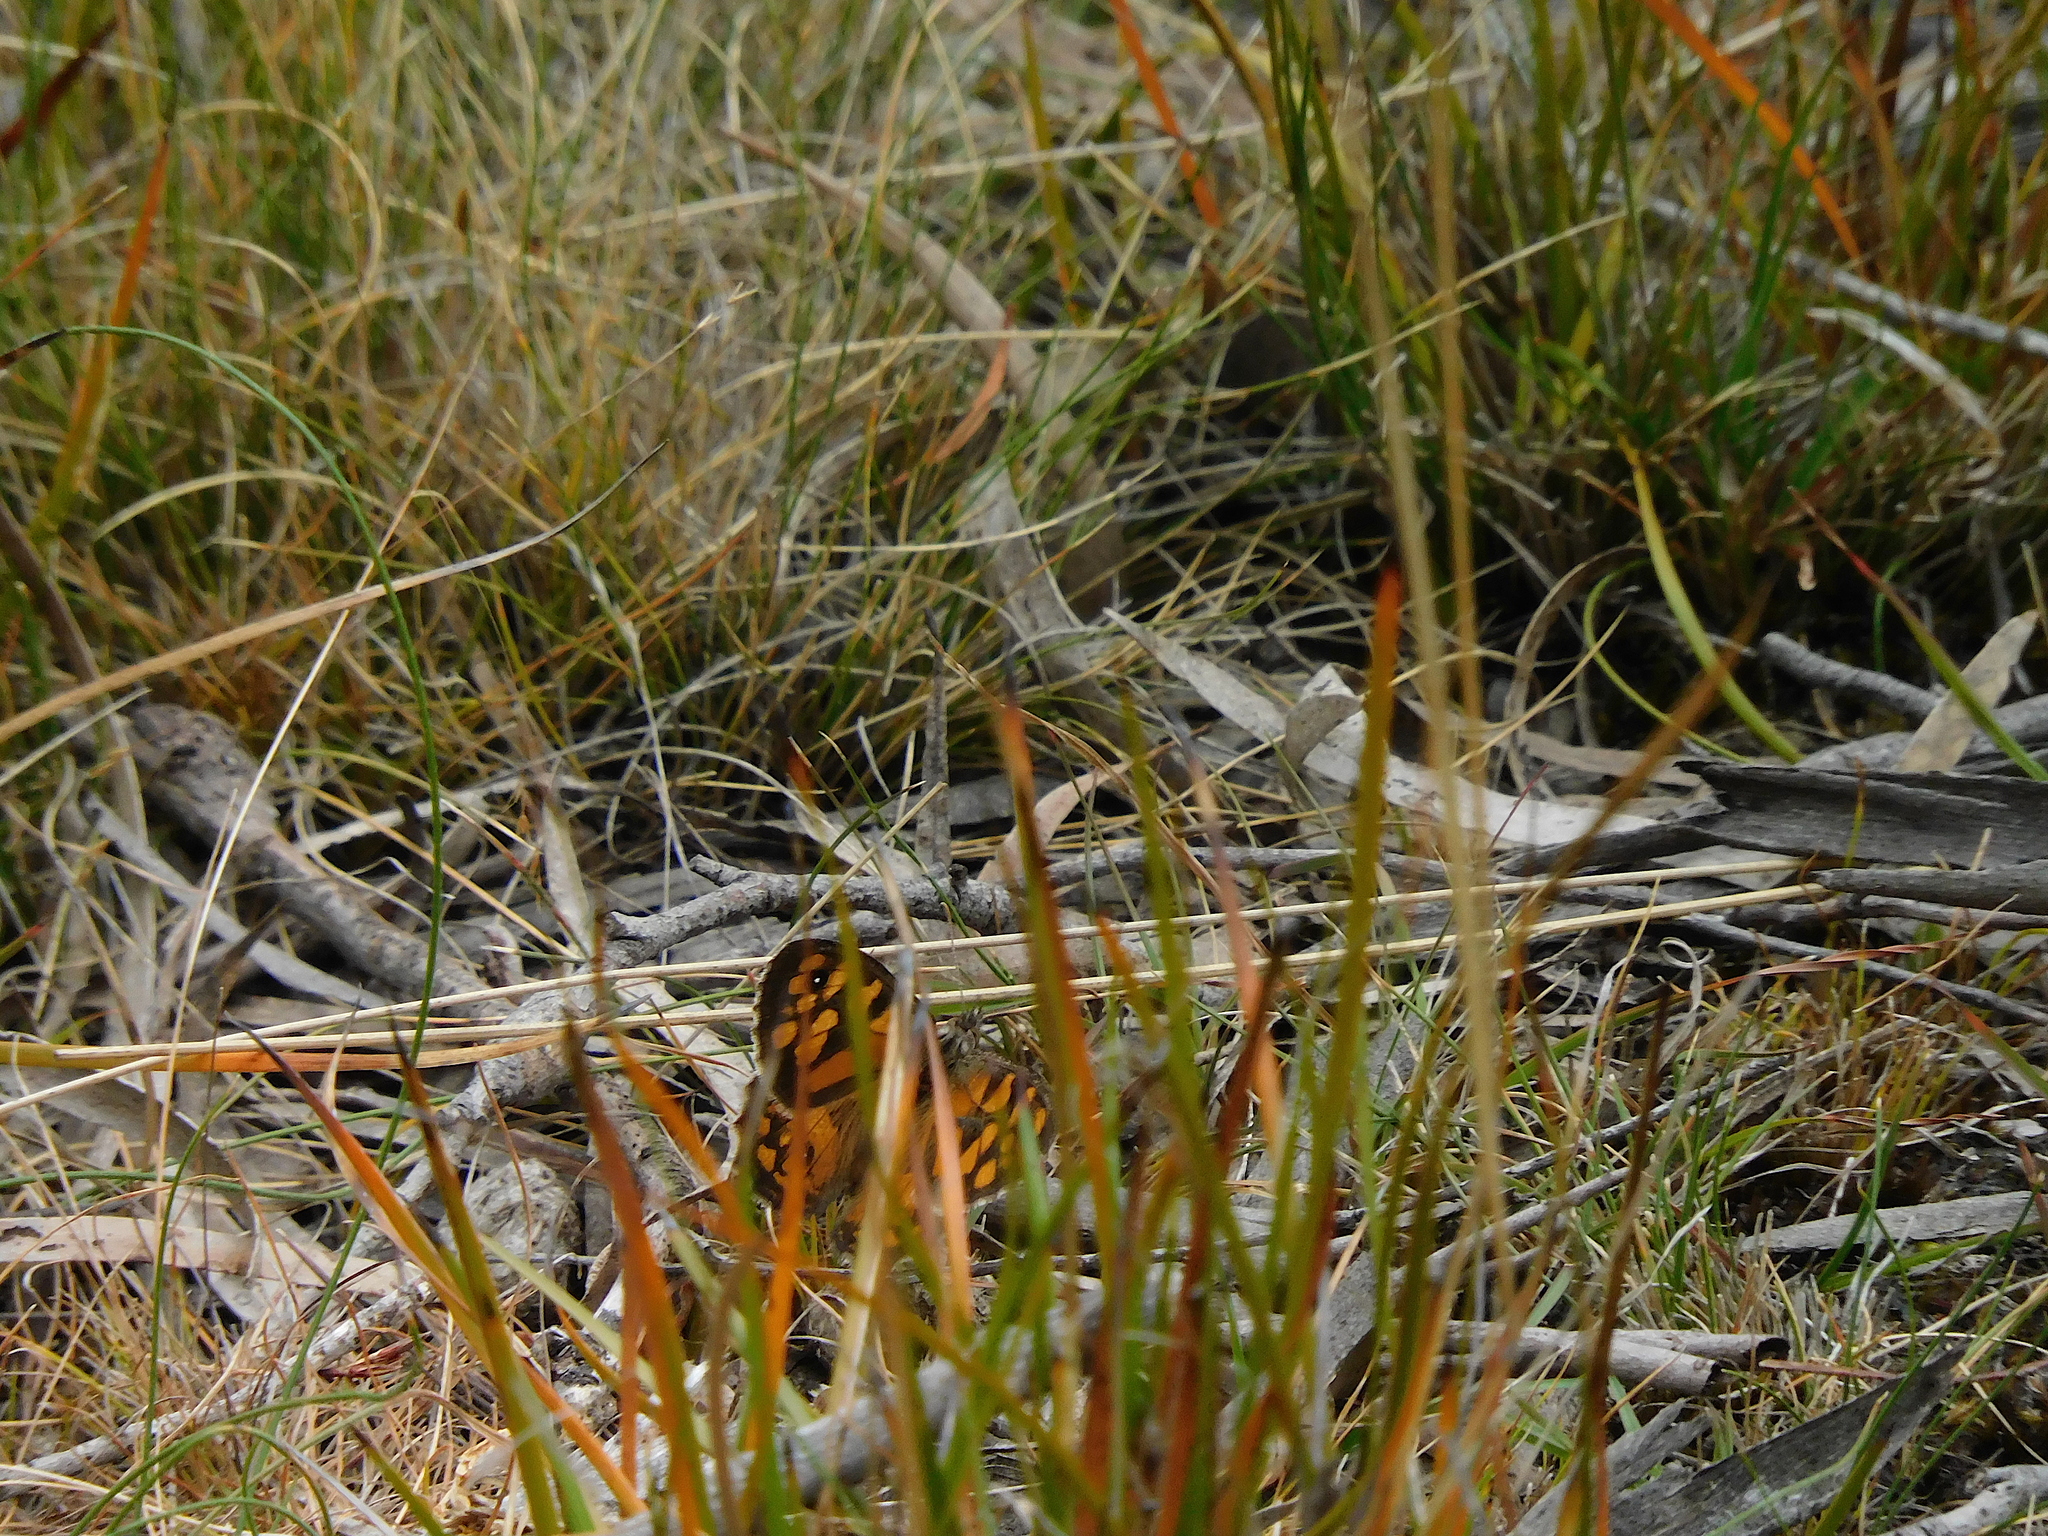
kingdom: Animalia
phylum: Arthropoda
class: Insecta
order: Lepidoptera
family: Nymphalidae
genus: Geitoneura
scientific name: Geitoneura klugii
